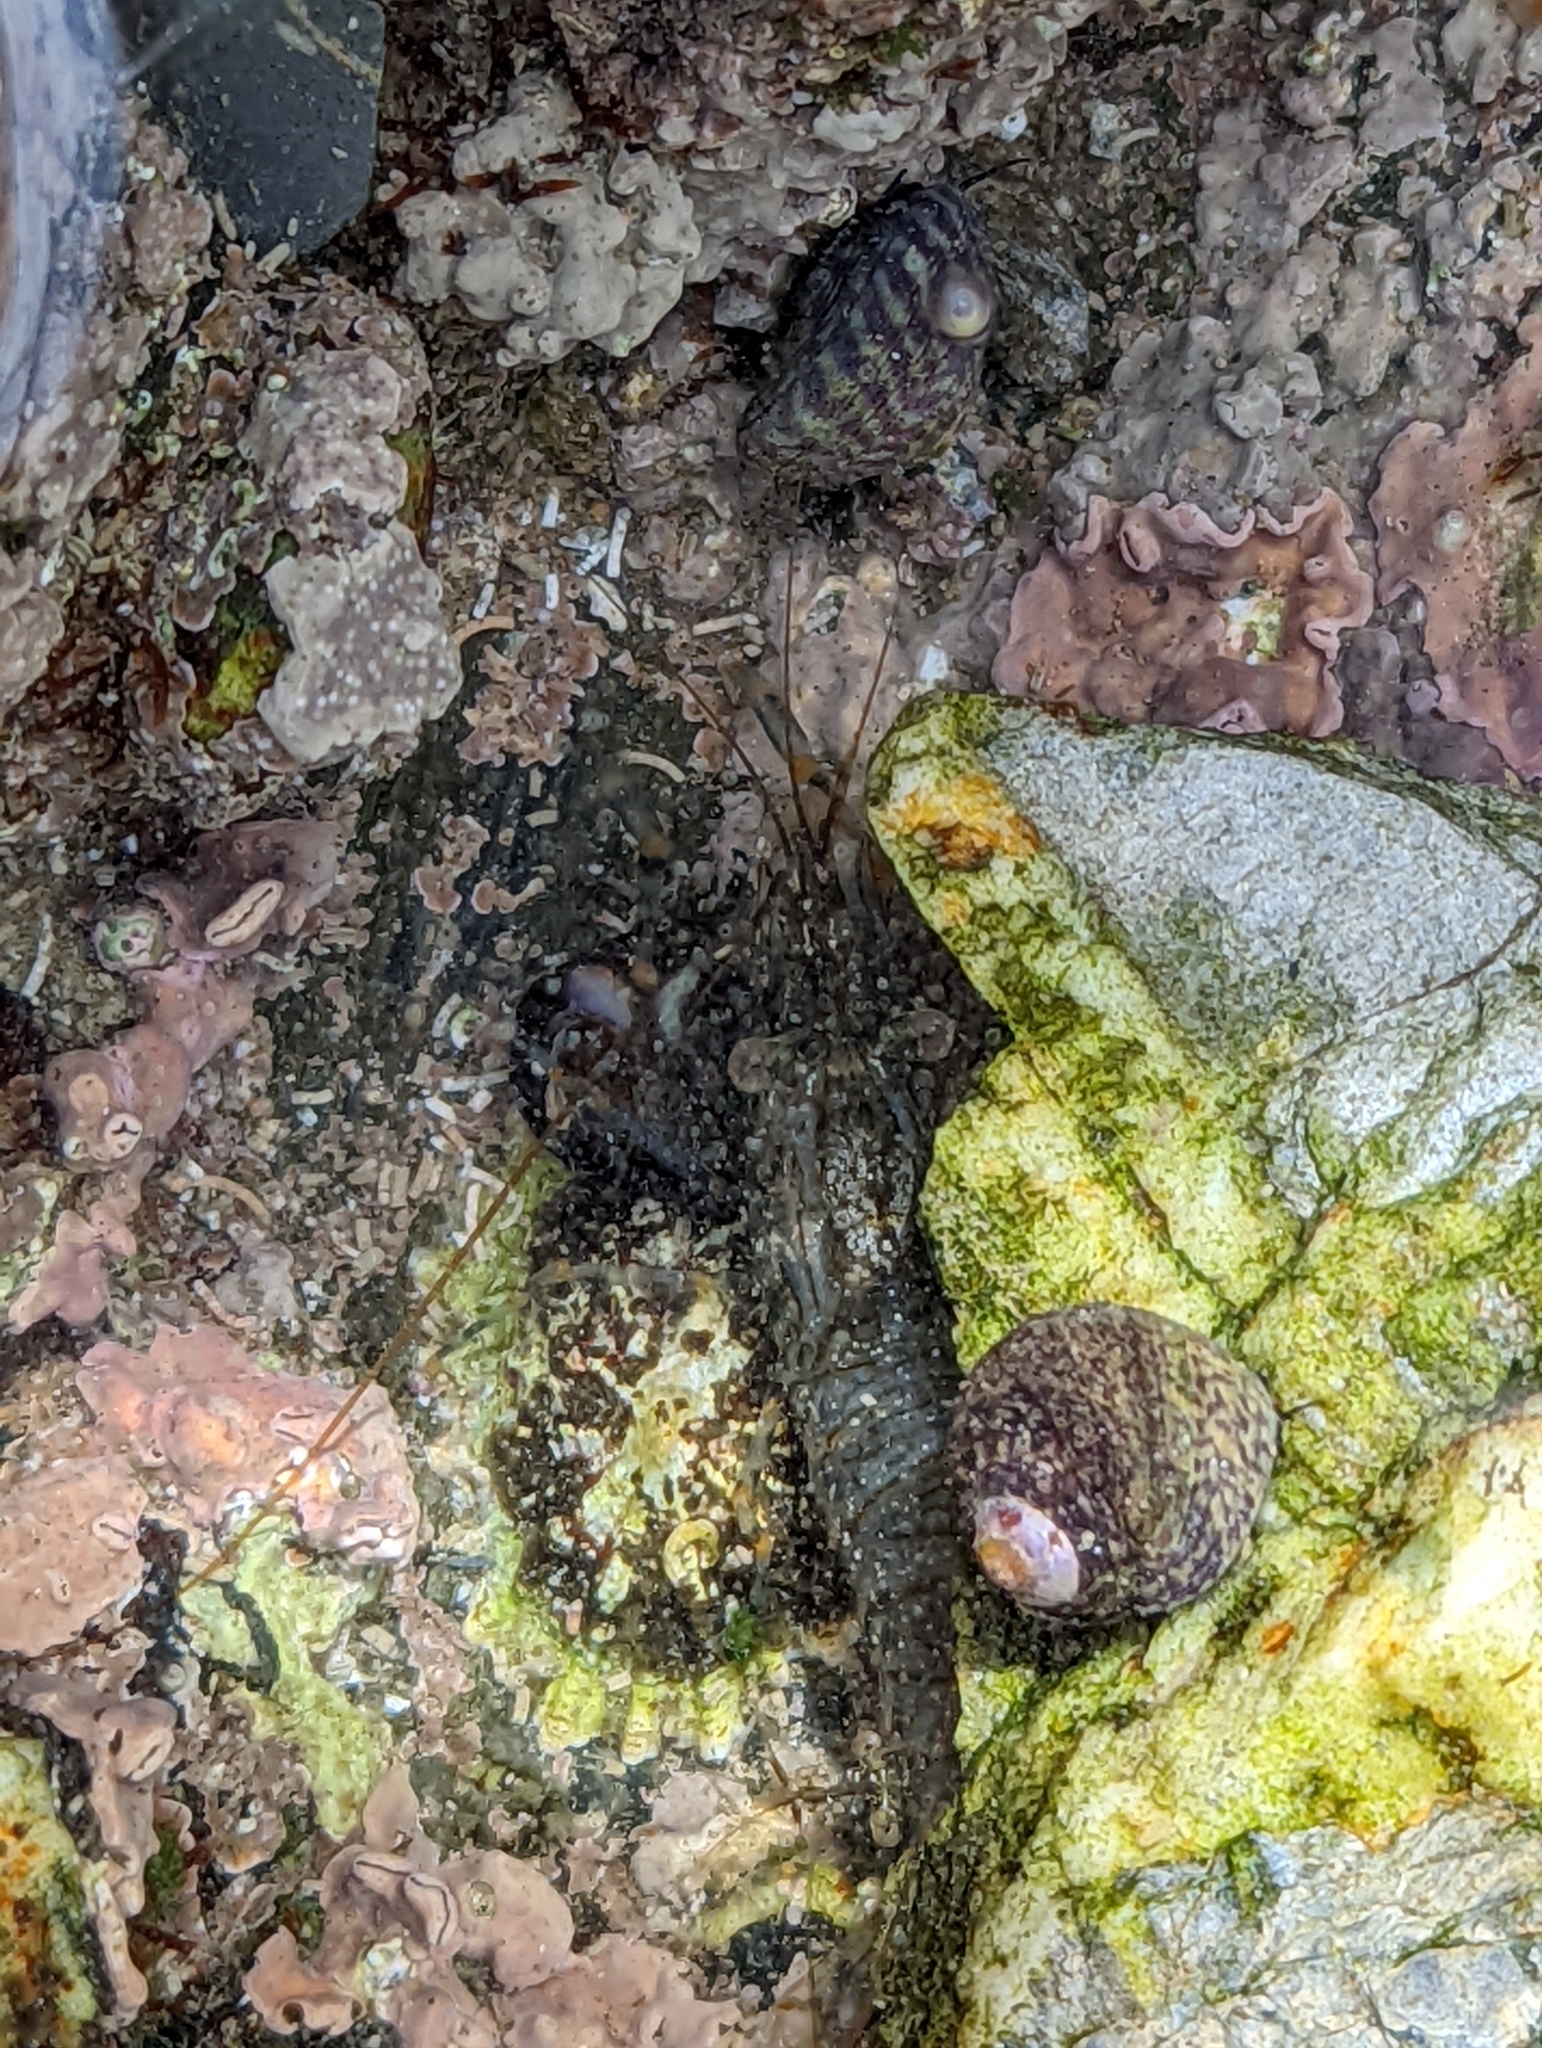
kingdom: Animalia
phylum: Arthropoda
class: Malacostraca
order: Decapoda
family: Palaemonidae
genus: Palaemon
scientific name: Palaemon elegans
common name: Grass prawm
